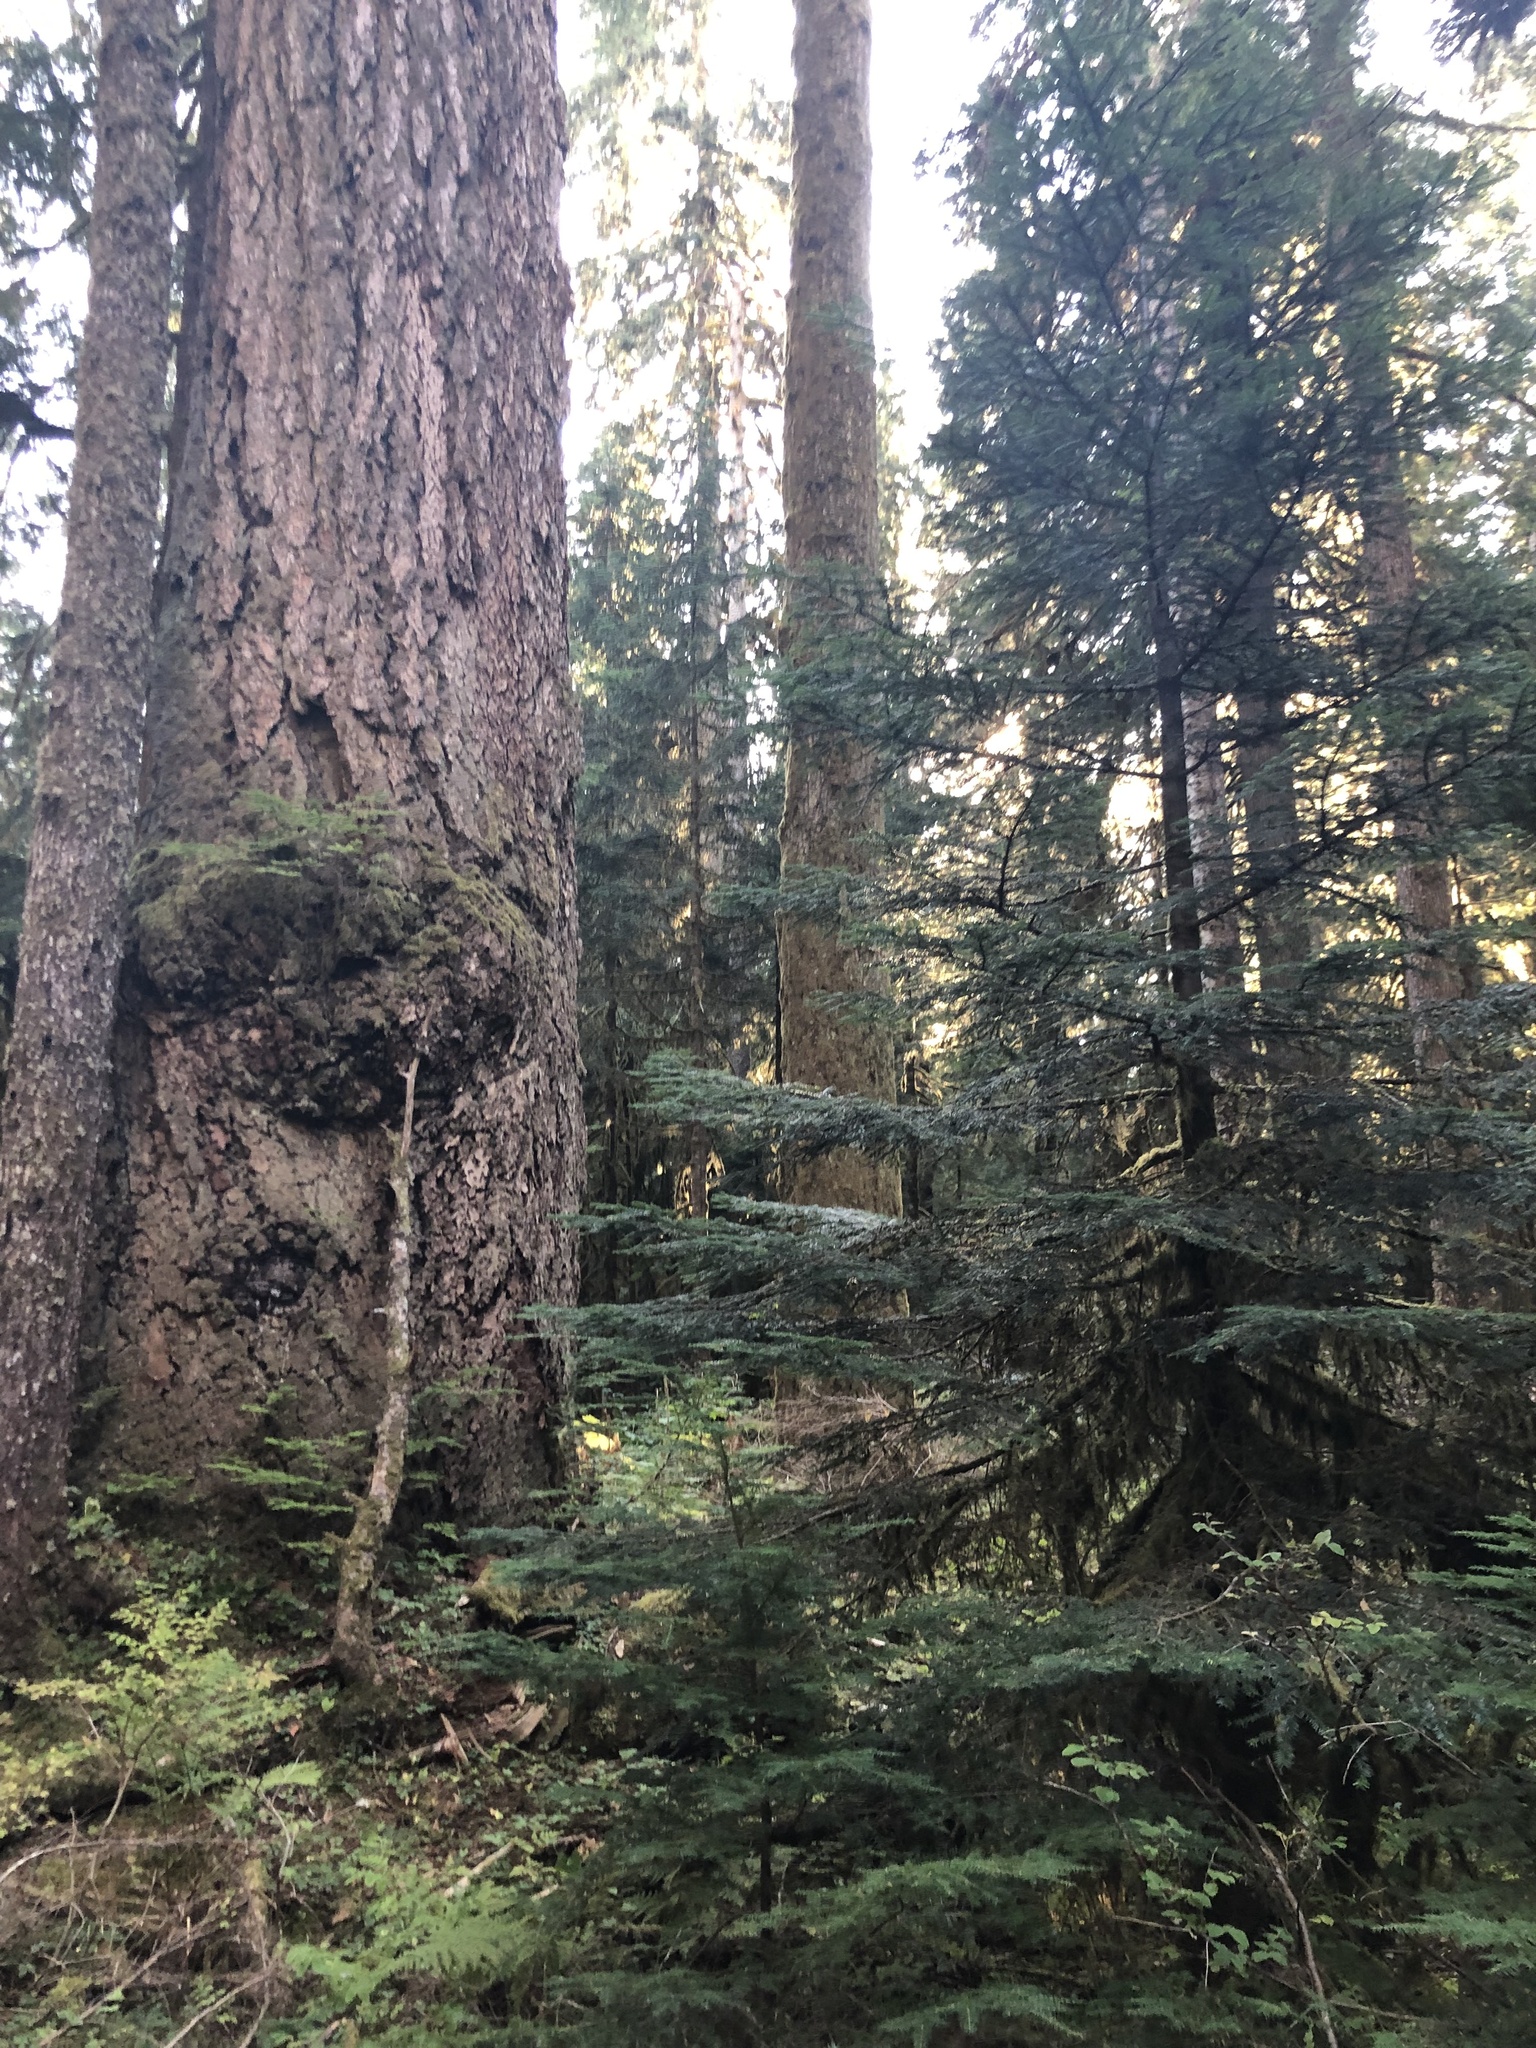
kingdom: Plantae
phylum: Tracheophyta
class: Pinopsida
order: Pinales
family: Pinaceae
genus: Pseudotsuga
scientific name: Pseudotsuga menziesii
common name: Douglas fir
